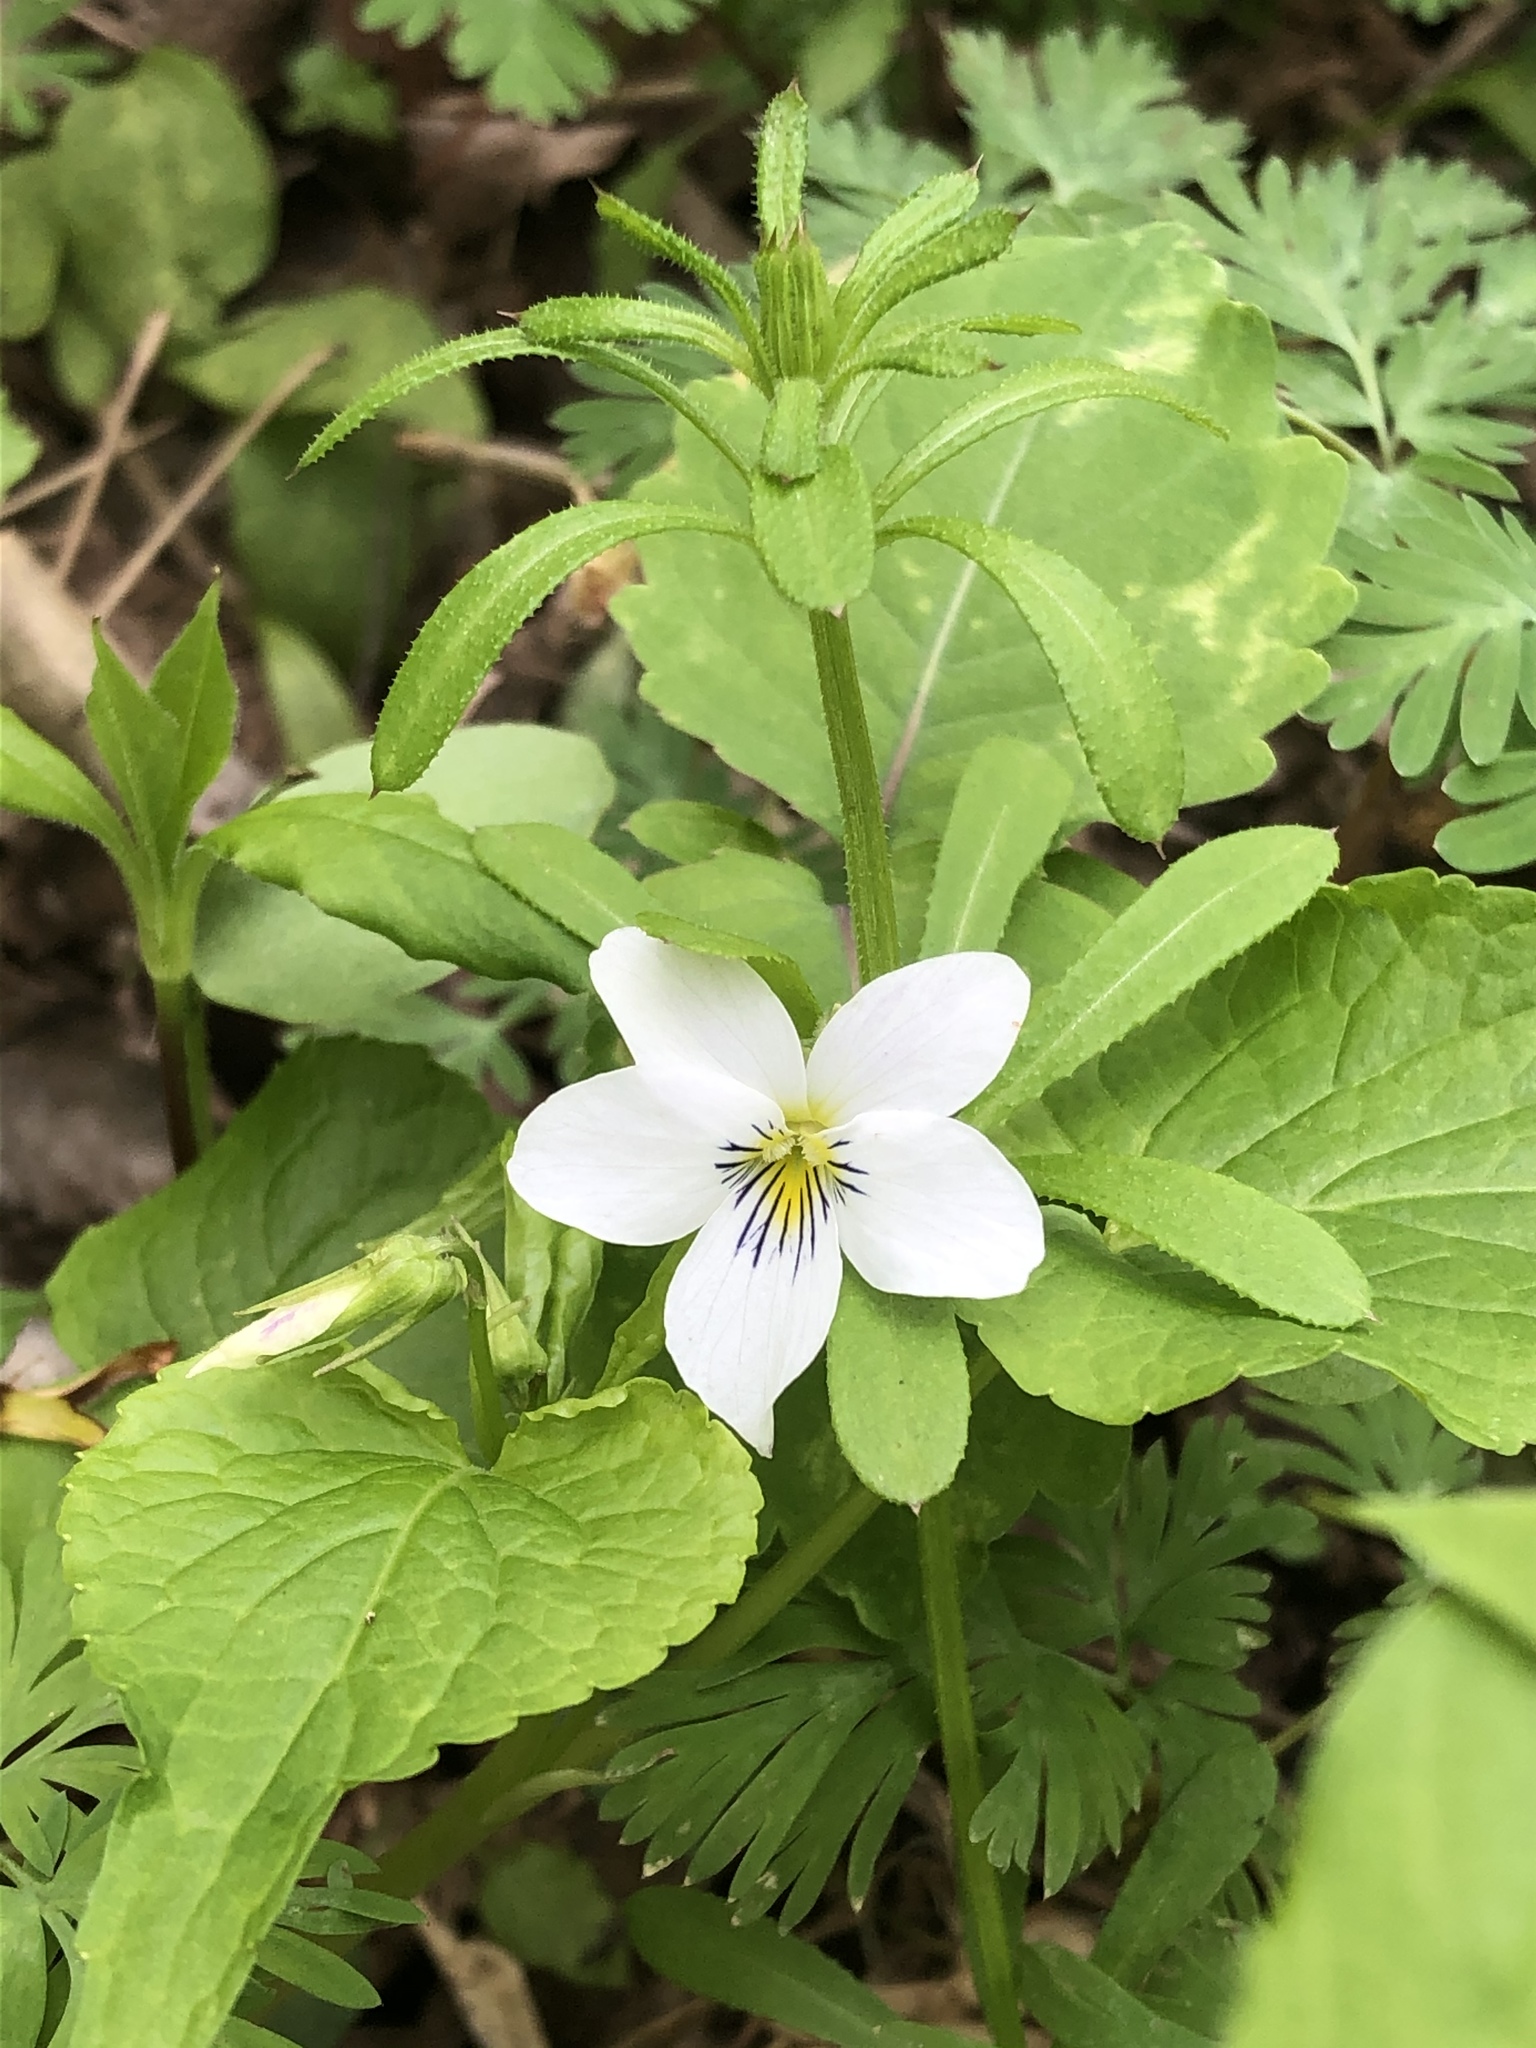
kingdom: Plantae
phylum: Tracheophyta
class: Magnoliopsida
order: Malpighiales
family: Violaceae
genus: Viola
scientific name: Viola canadensis
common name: Canada violet
